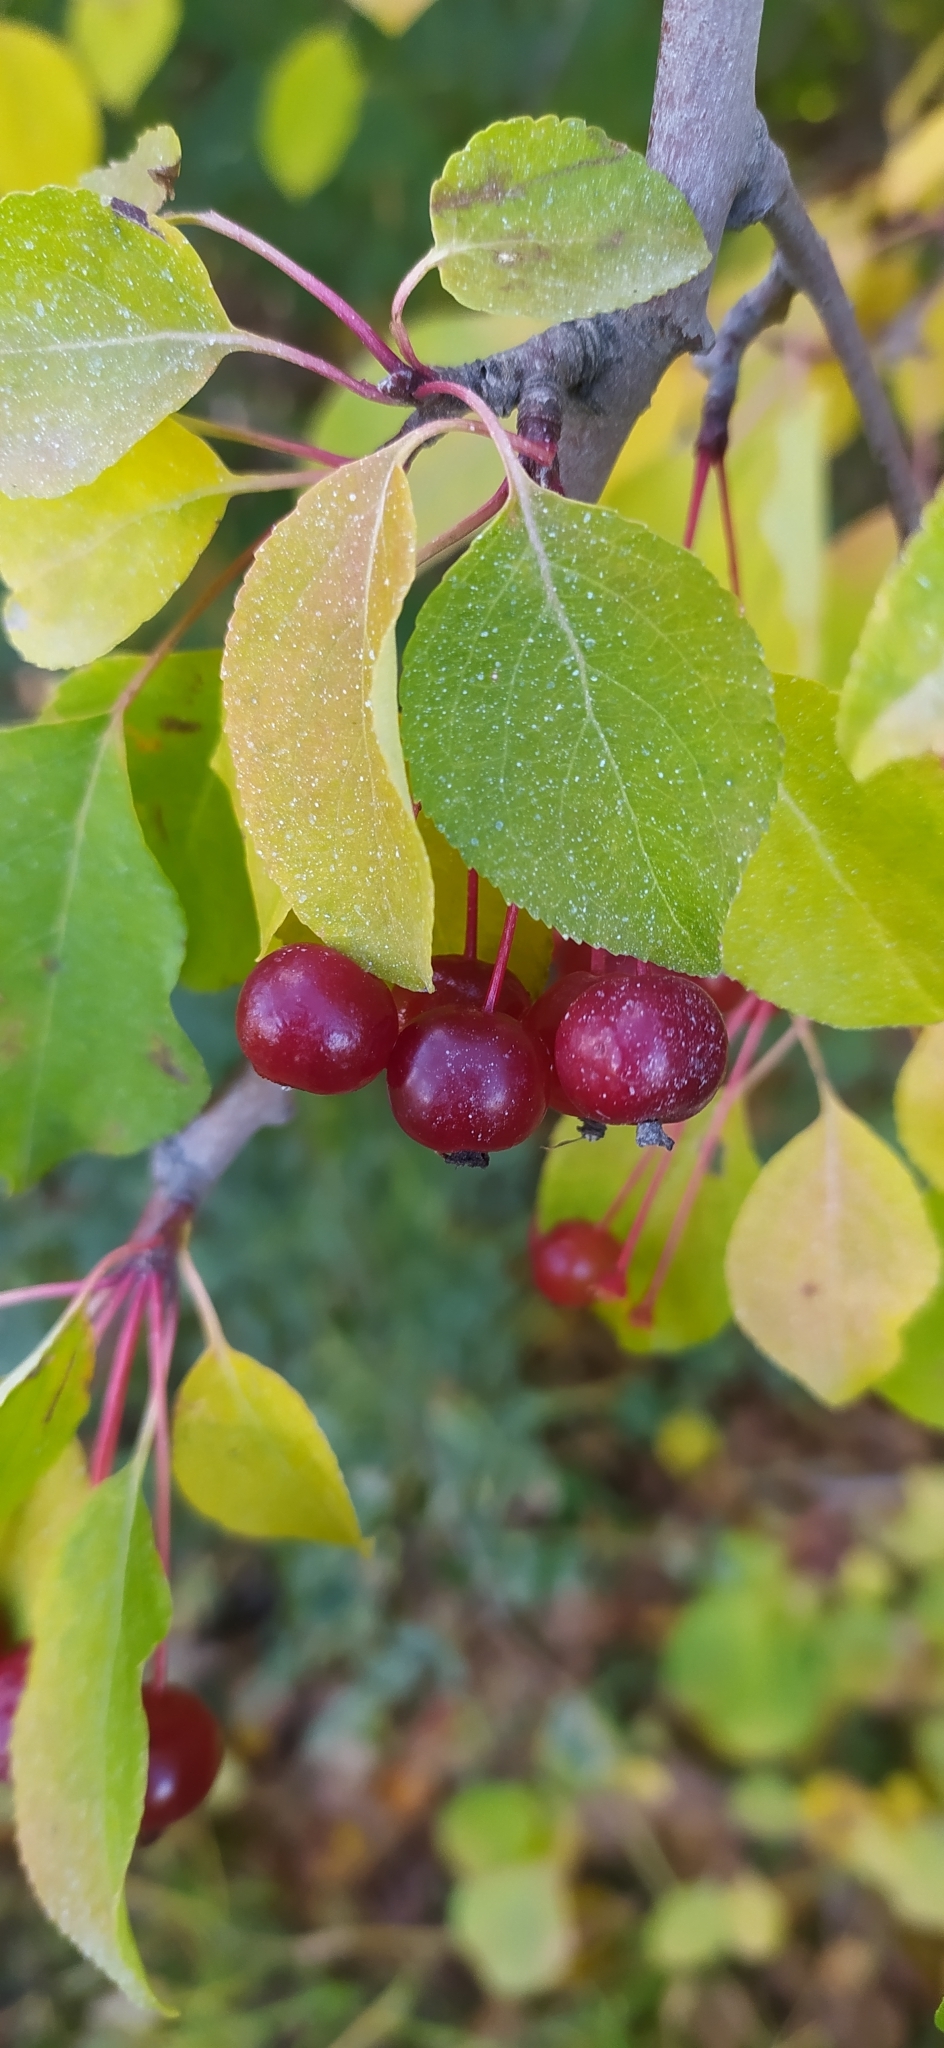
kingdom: Plantae
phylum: Tracheophyta
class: Magnoliopsida
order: Rosales
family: Rosaceae
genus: Malus
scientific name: Malus baccata
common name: Siberian crab
